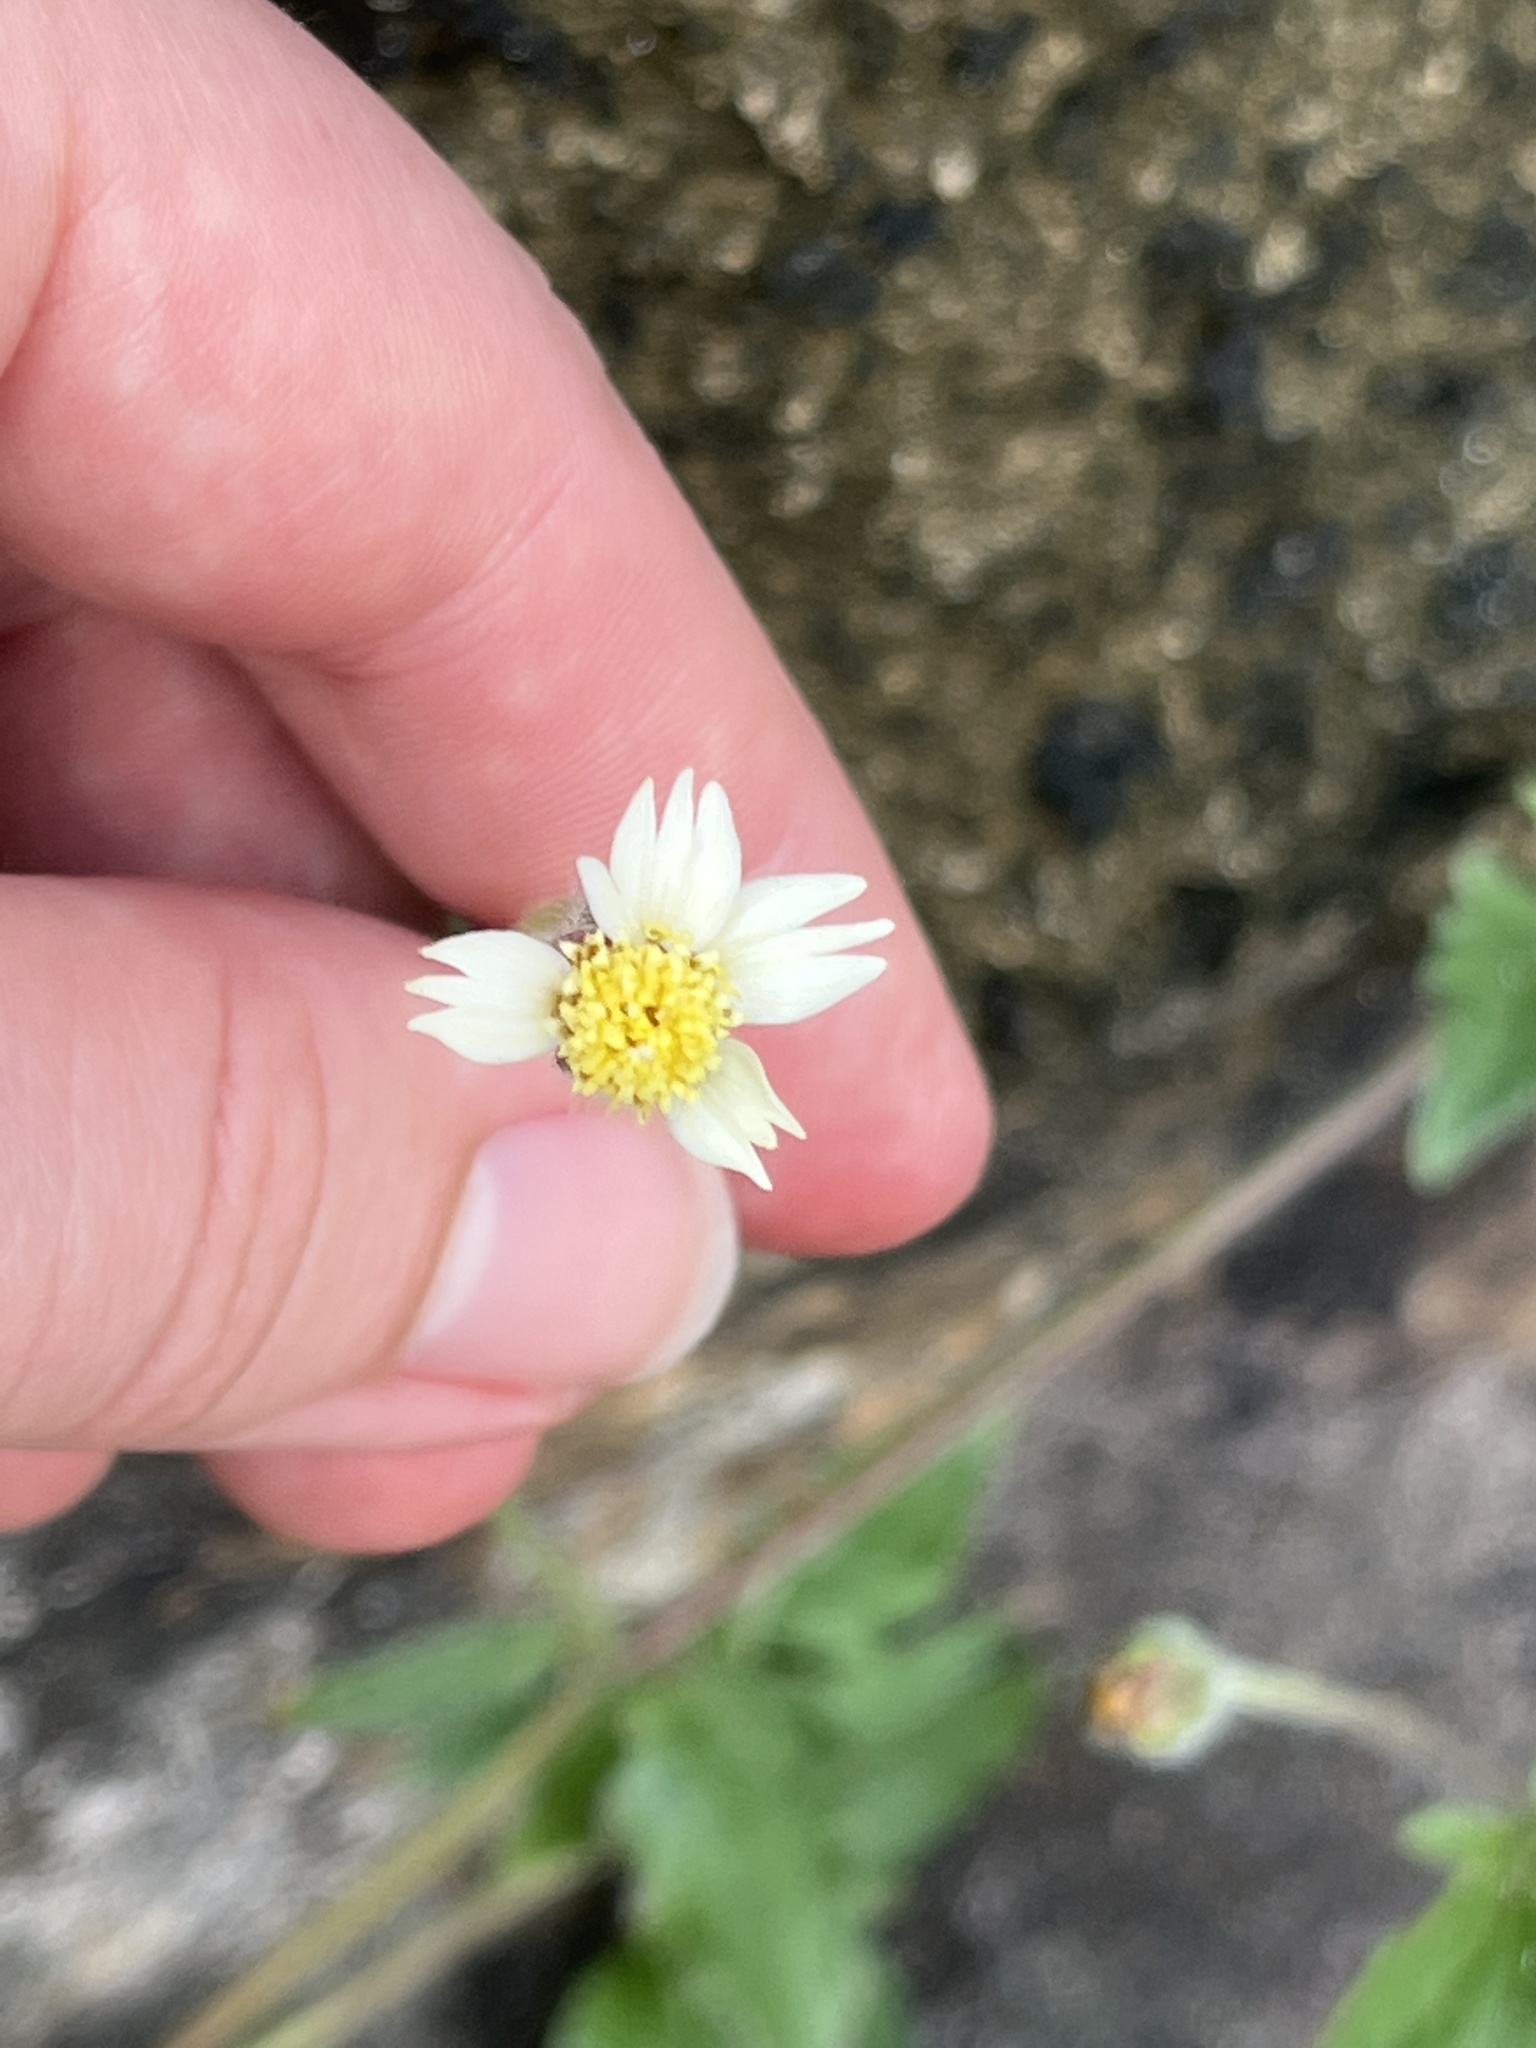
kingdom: Plantae
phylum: Tracheophyta
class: Magnoliopsida
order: Asterales
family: Asteraceae
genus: Tridax
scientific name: Tridax procumbens
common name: Coatbuttons
